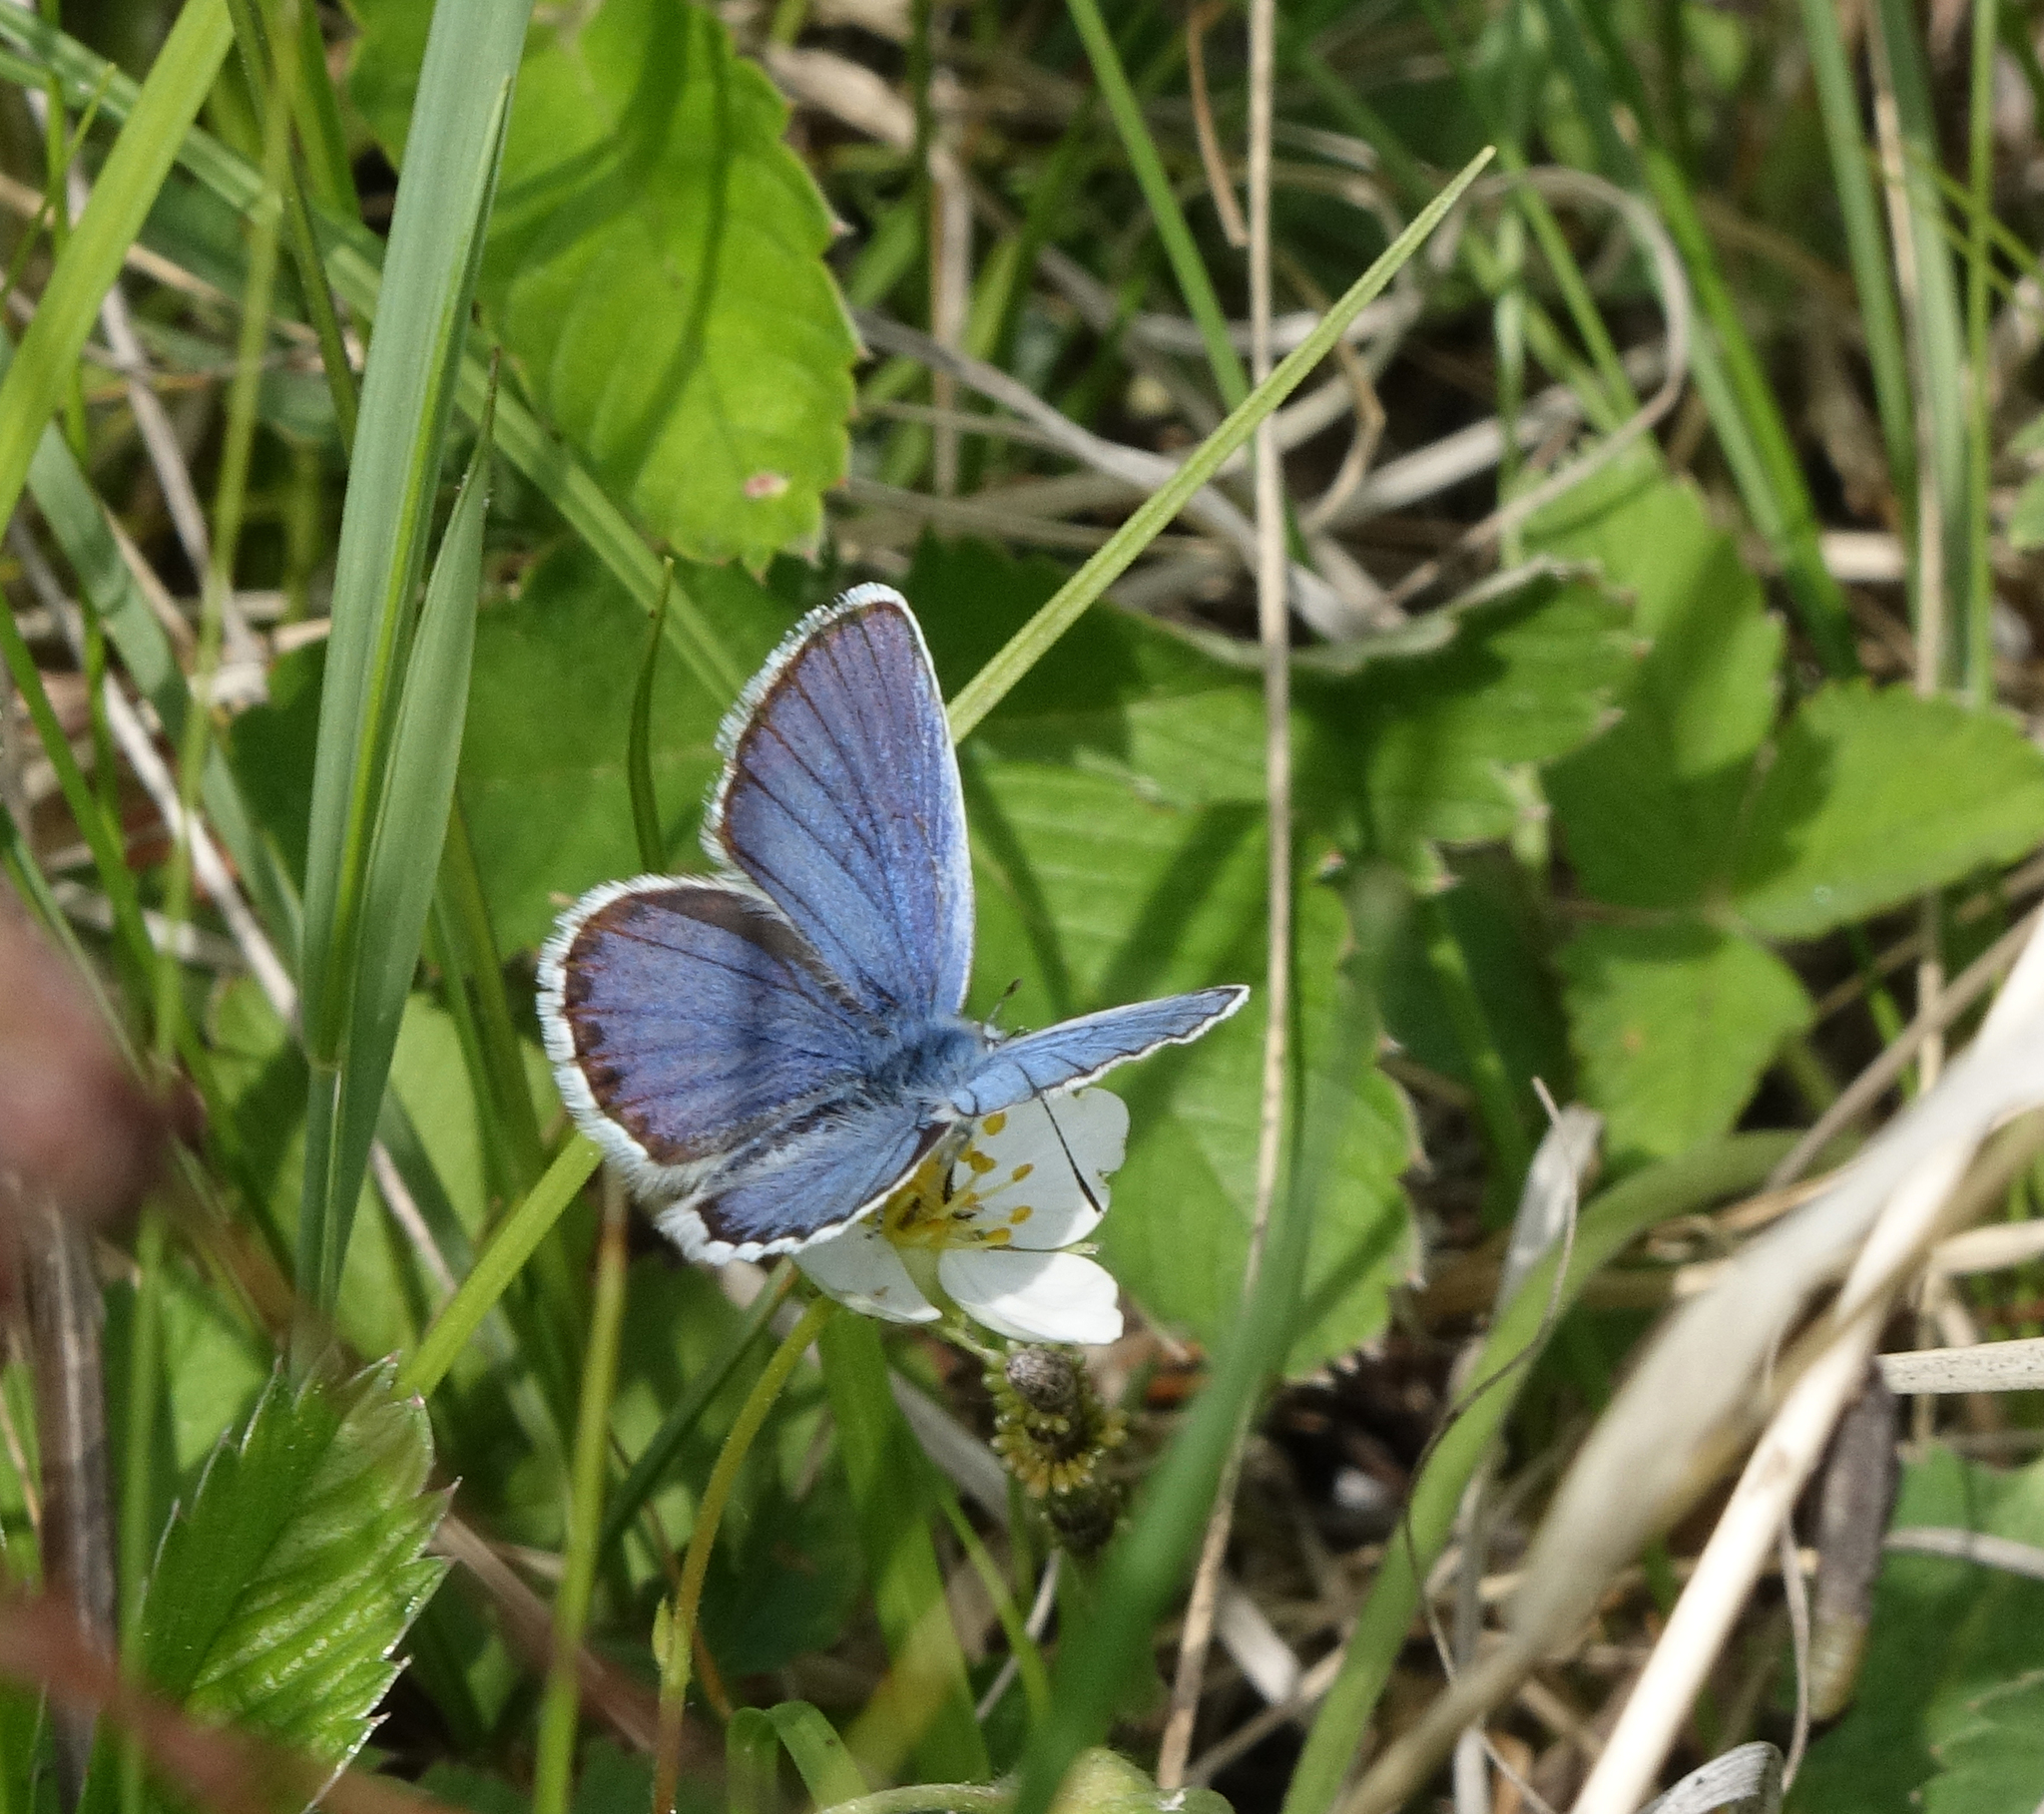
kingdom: Animalia
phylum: Arthropoda
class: Insecta
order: Lepidoptera
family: Lycaenidae
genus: Lycaeides
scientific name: Lycaeides idas
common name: Northern blue
